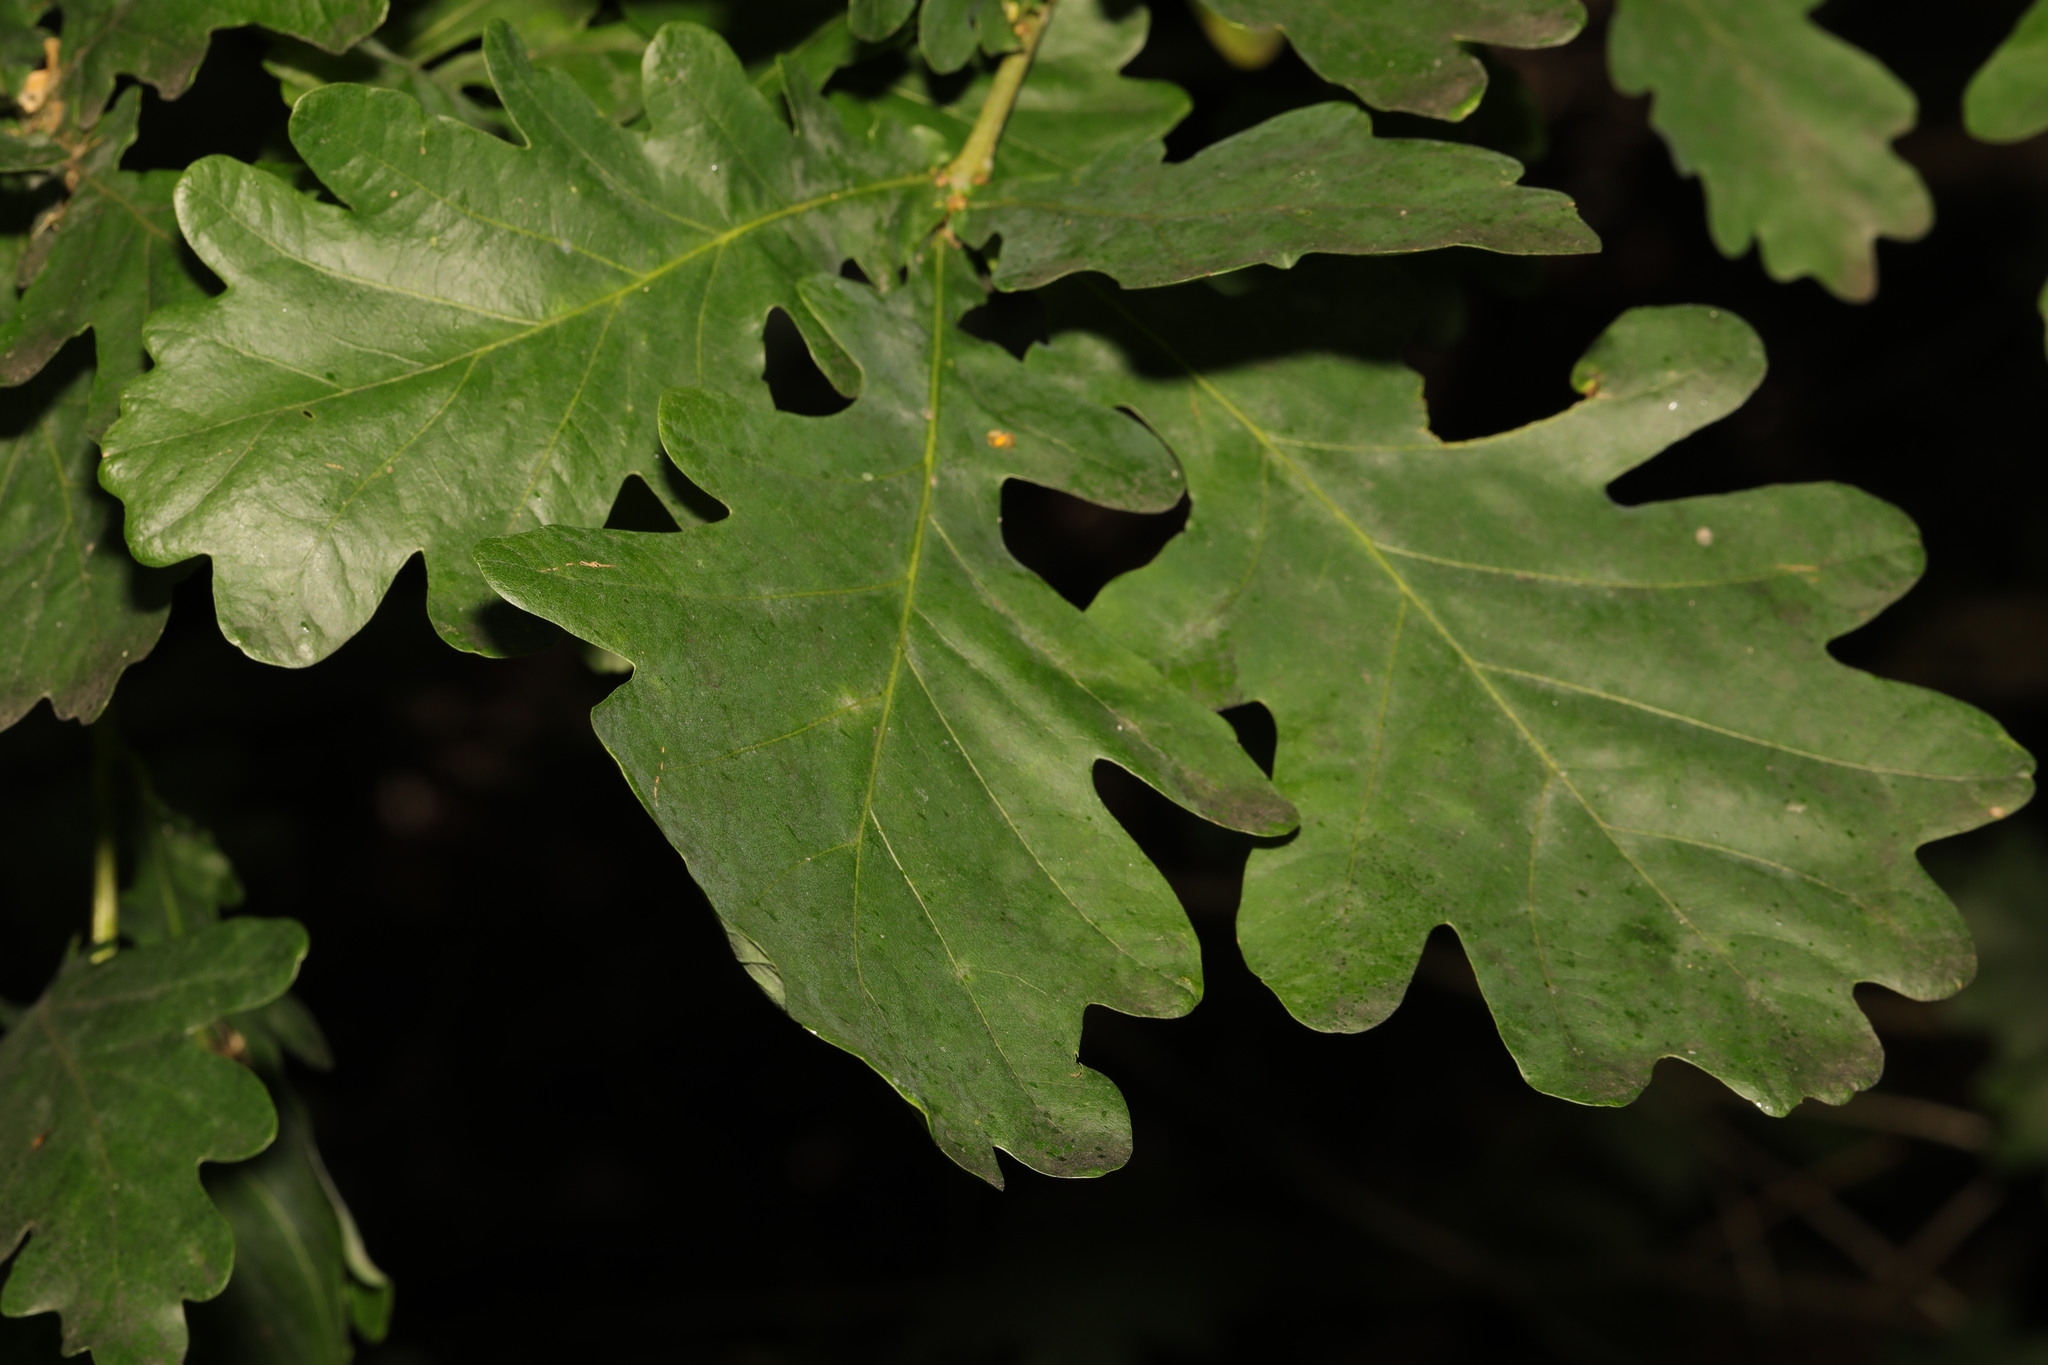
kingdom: Plantae
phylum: Tracheophyta
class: Magnoliopsida
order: Fagales
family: Fagaceae
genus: Quercus
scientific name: Quercus robur
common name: Pedunculate oak
